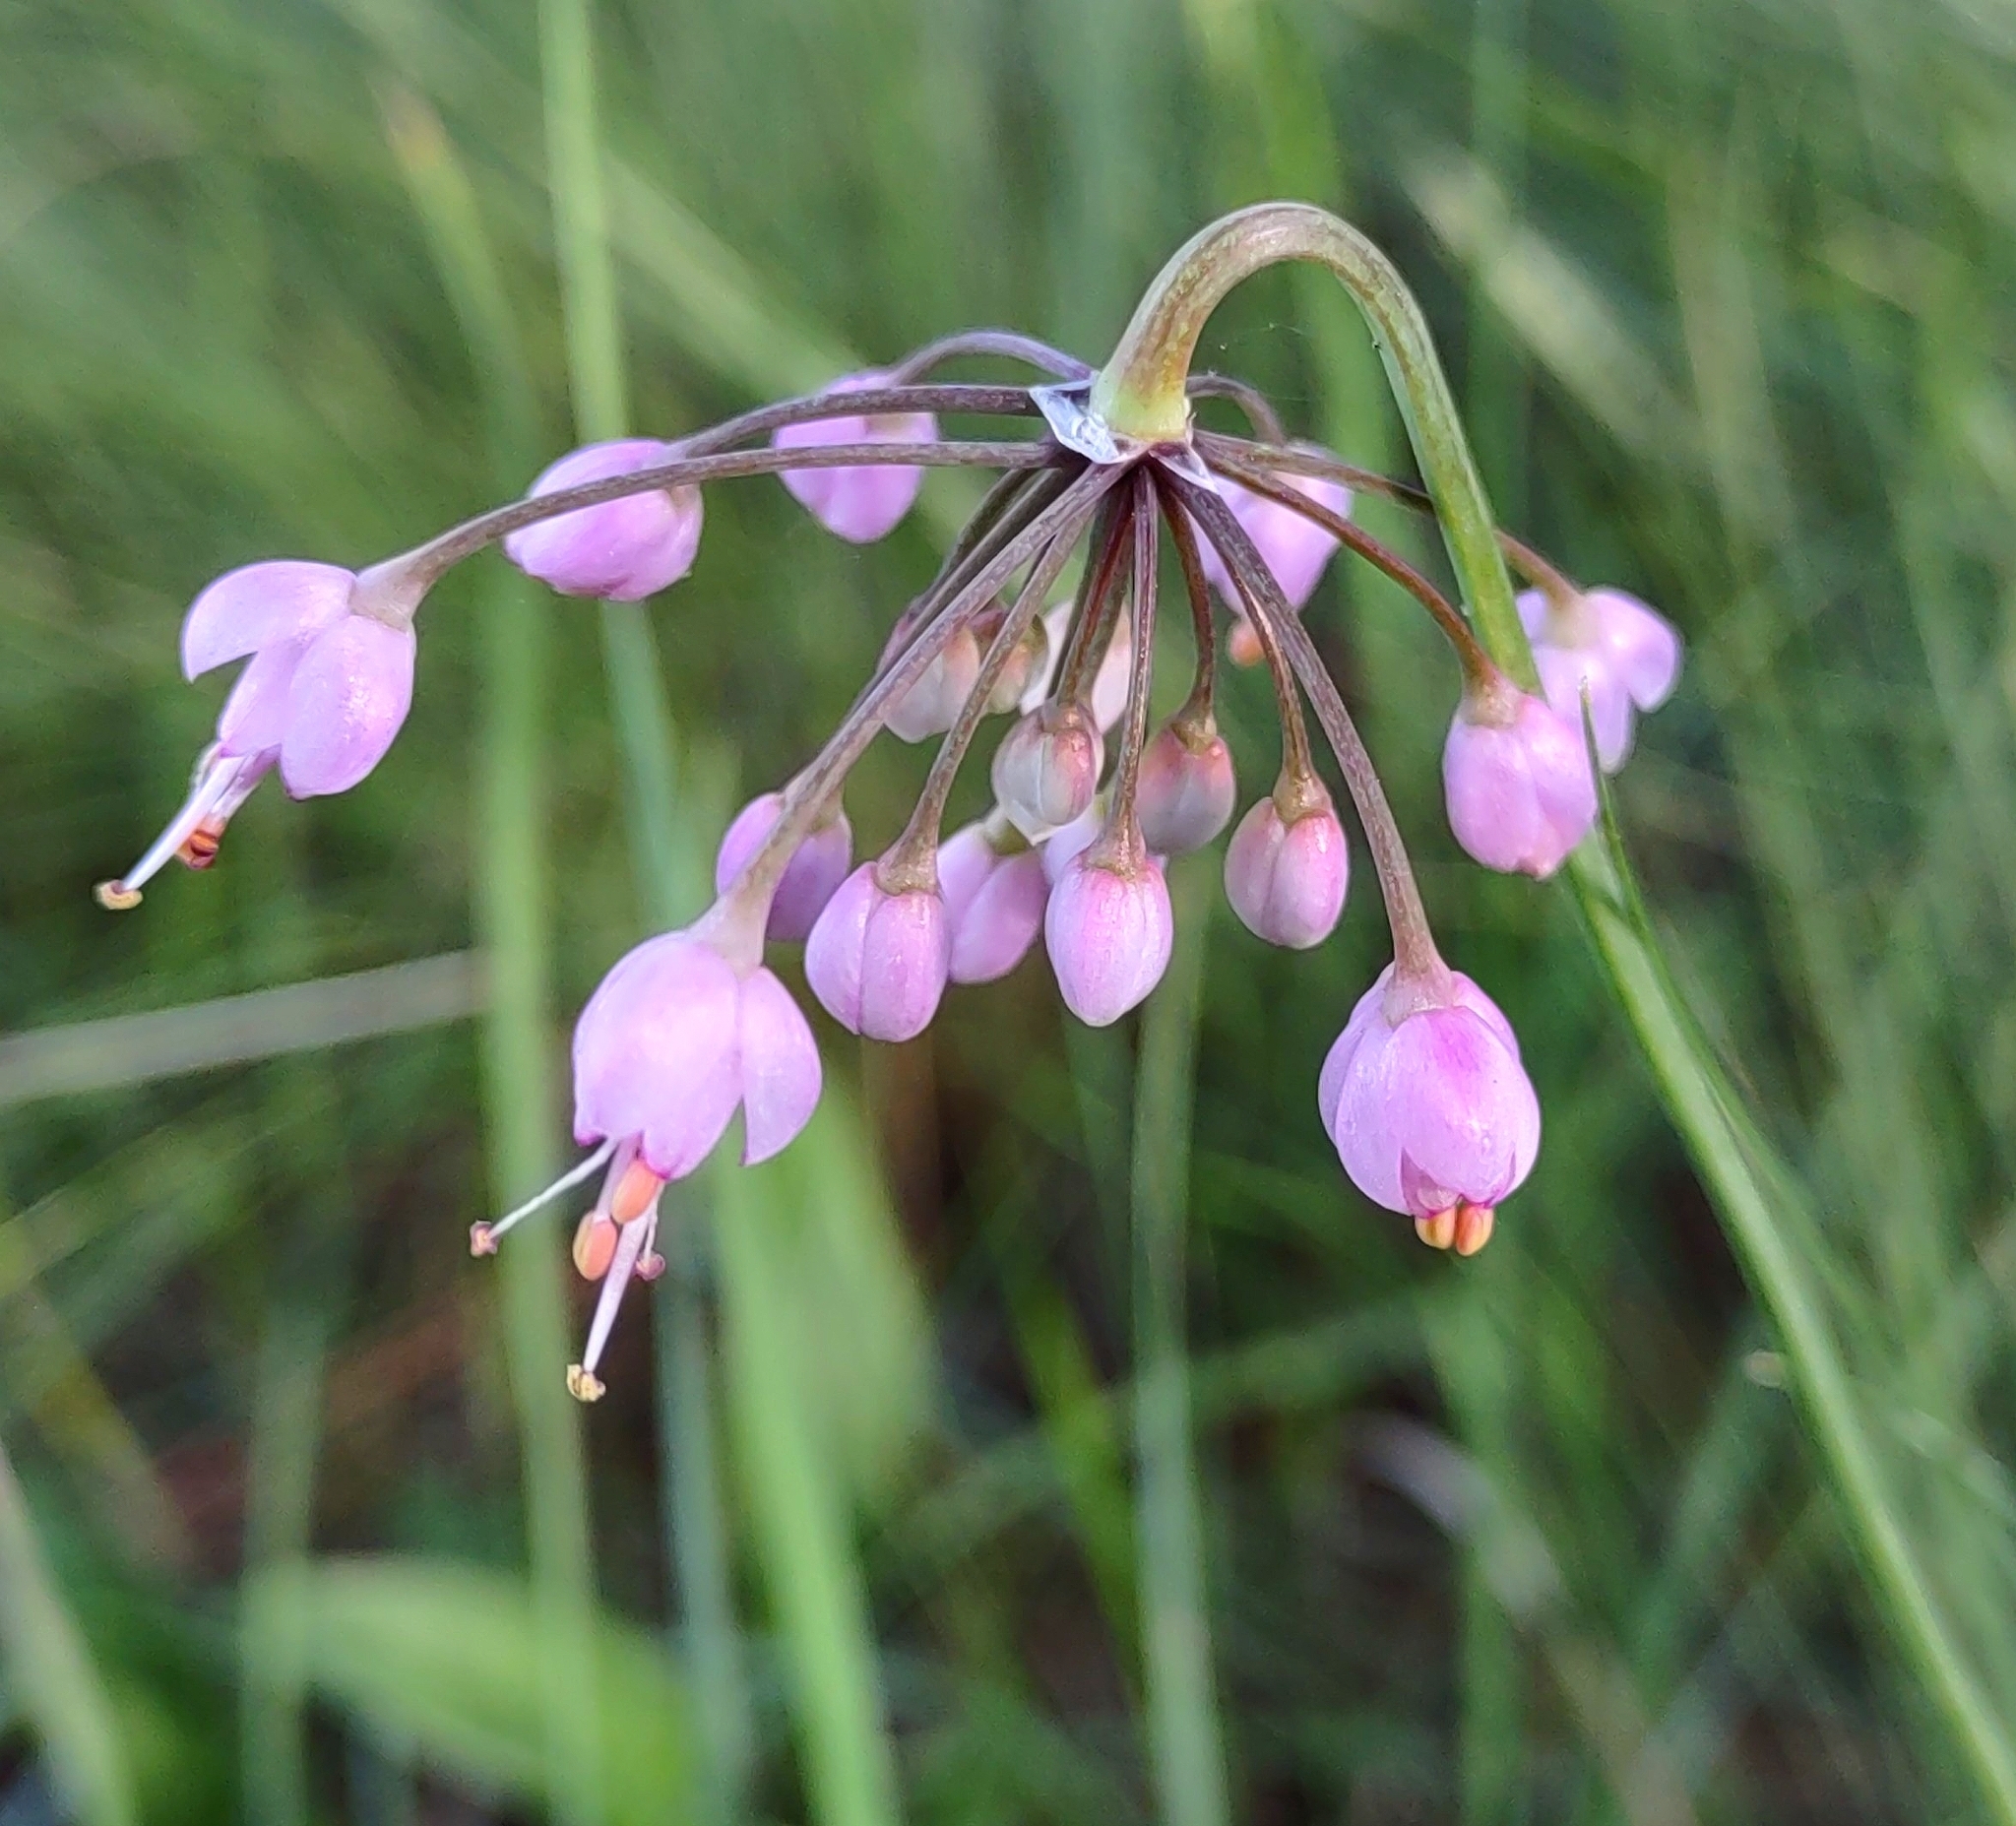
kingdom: Plantae
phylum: Tracheophyta
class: Liliopsida
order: Asparagales
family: Amaryllidaceae
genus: Allium
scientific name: Allium cernuum
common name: Nodding onion
